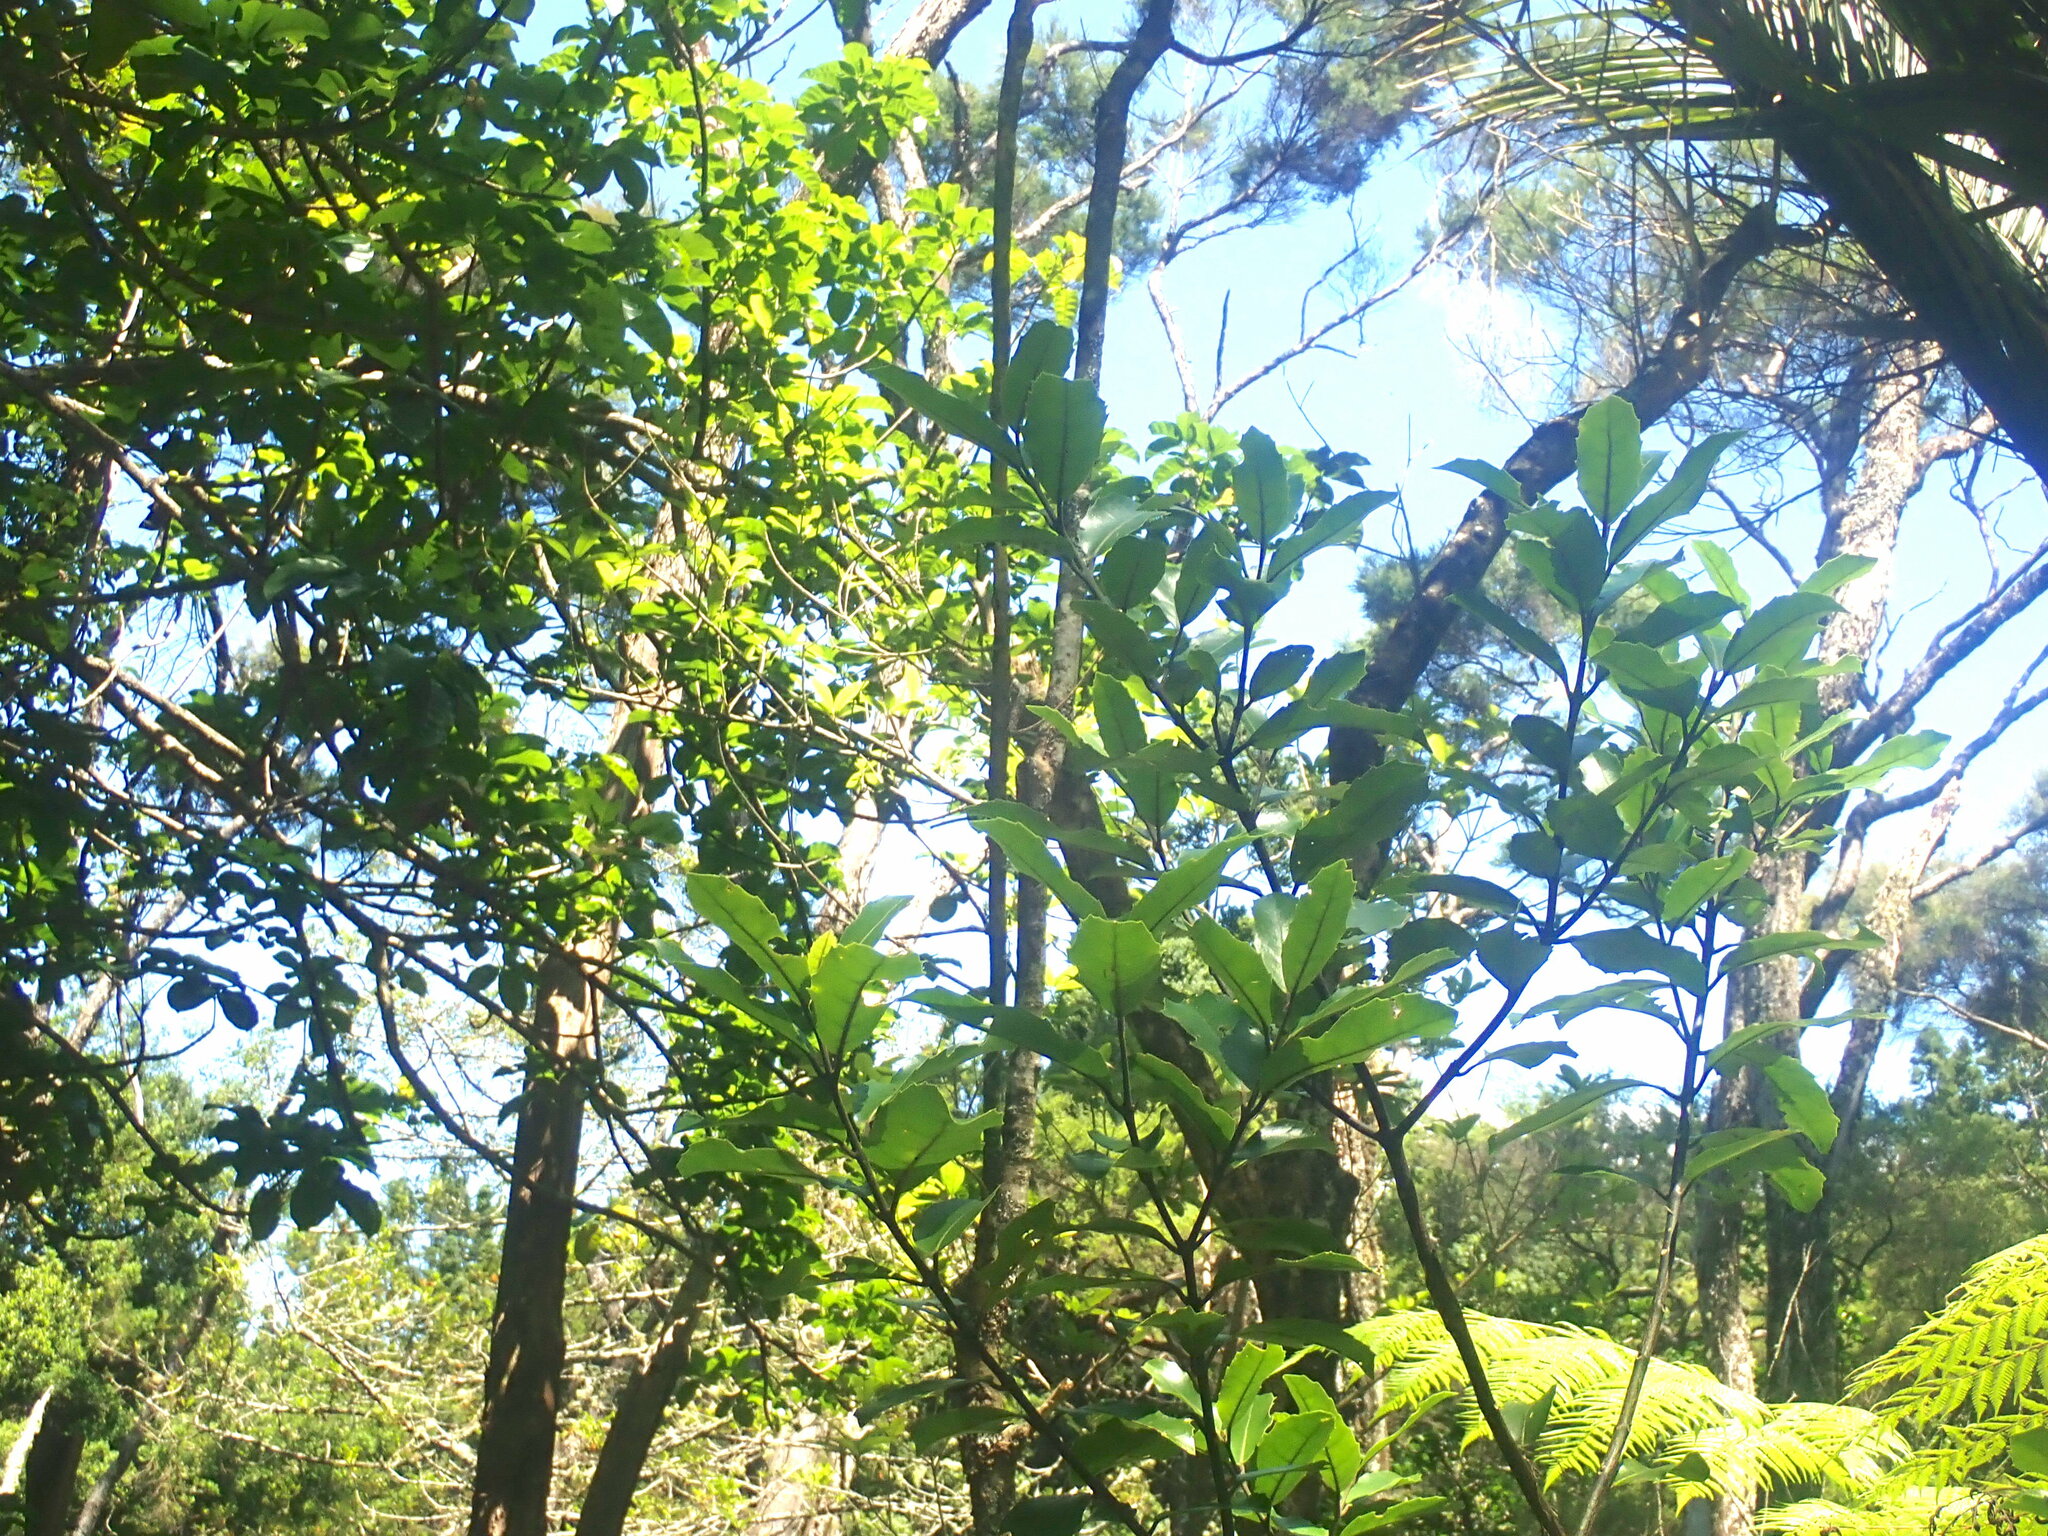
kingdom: Plantae
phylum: Tracheophyta
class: Magnoliopsida
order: Laurales
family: Monimiaceae
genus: Hedycarya
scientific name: Hedycarya arborea
